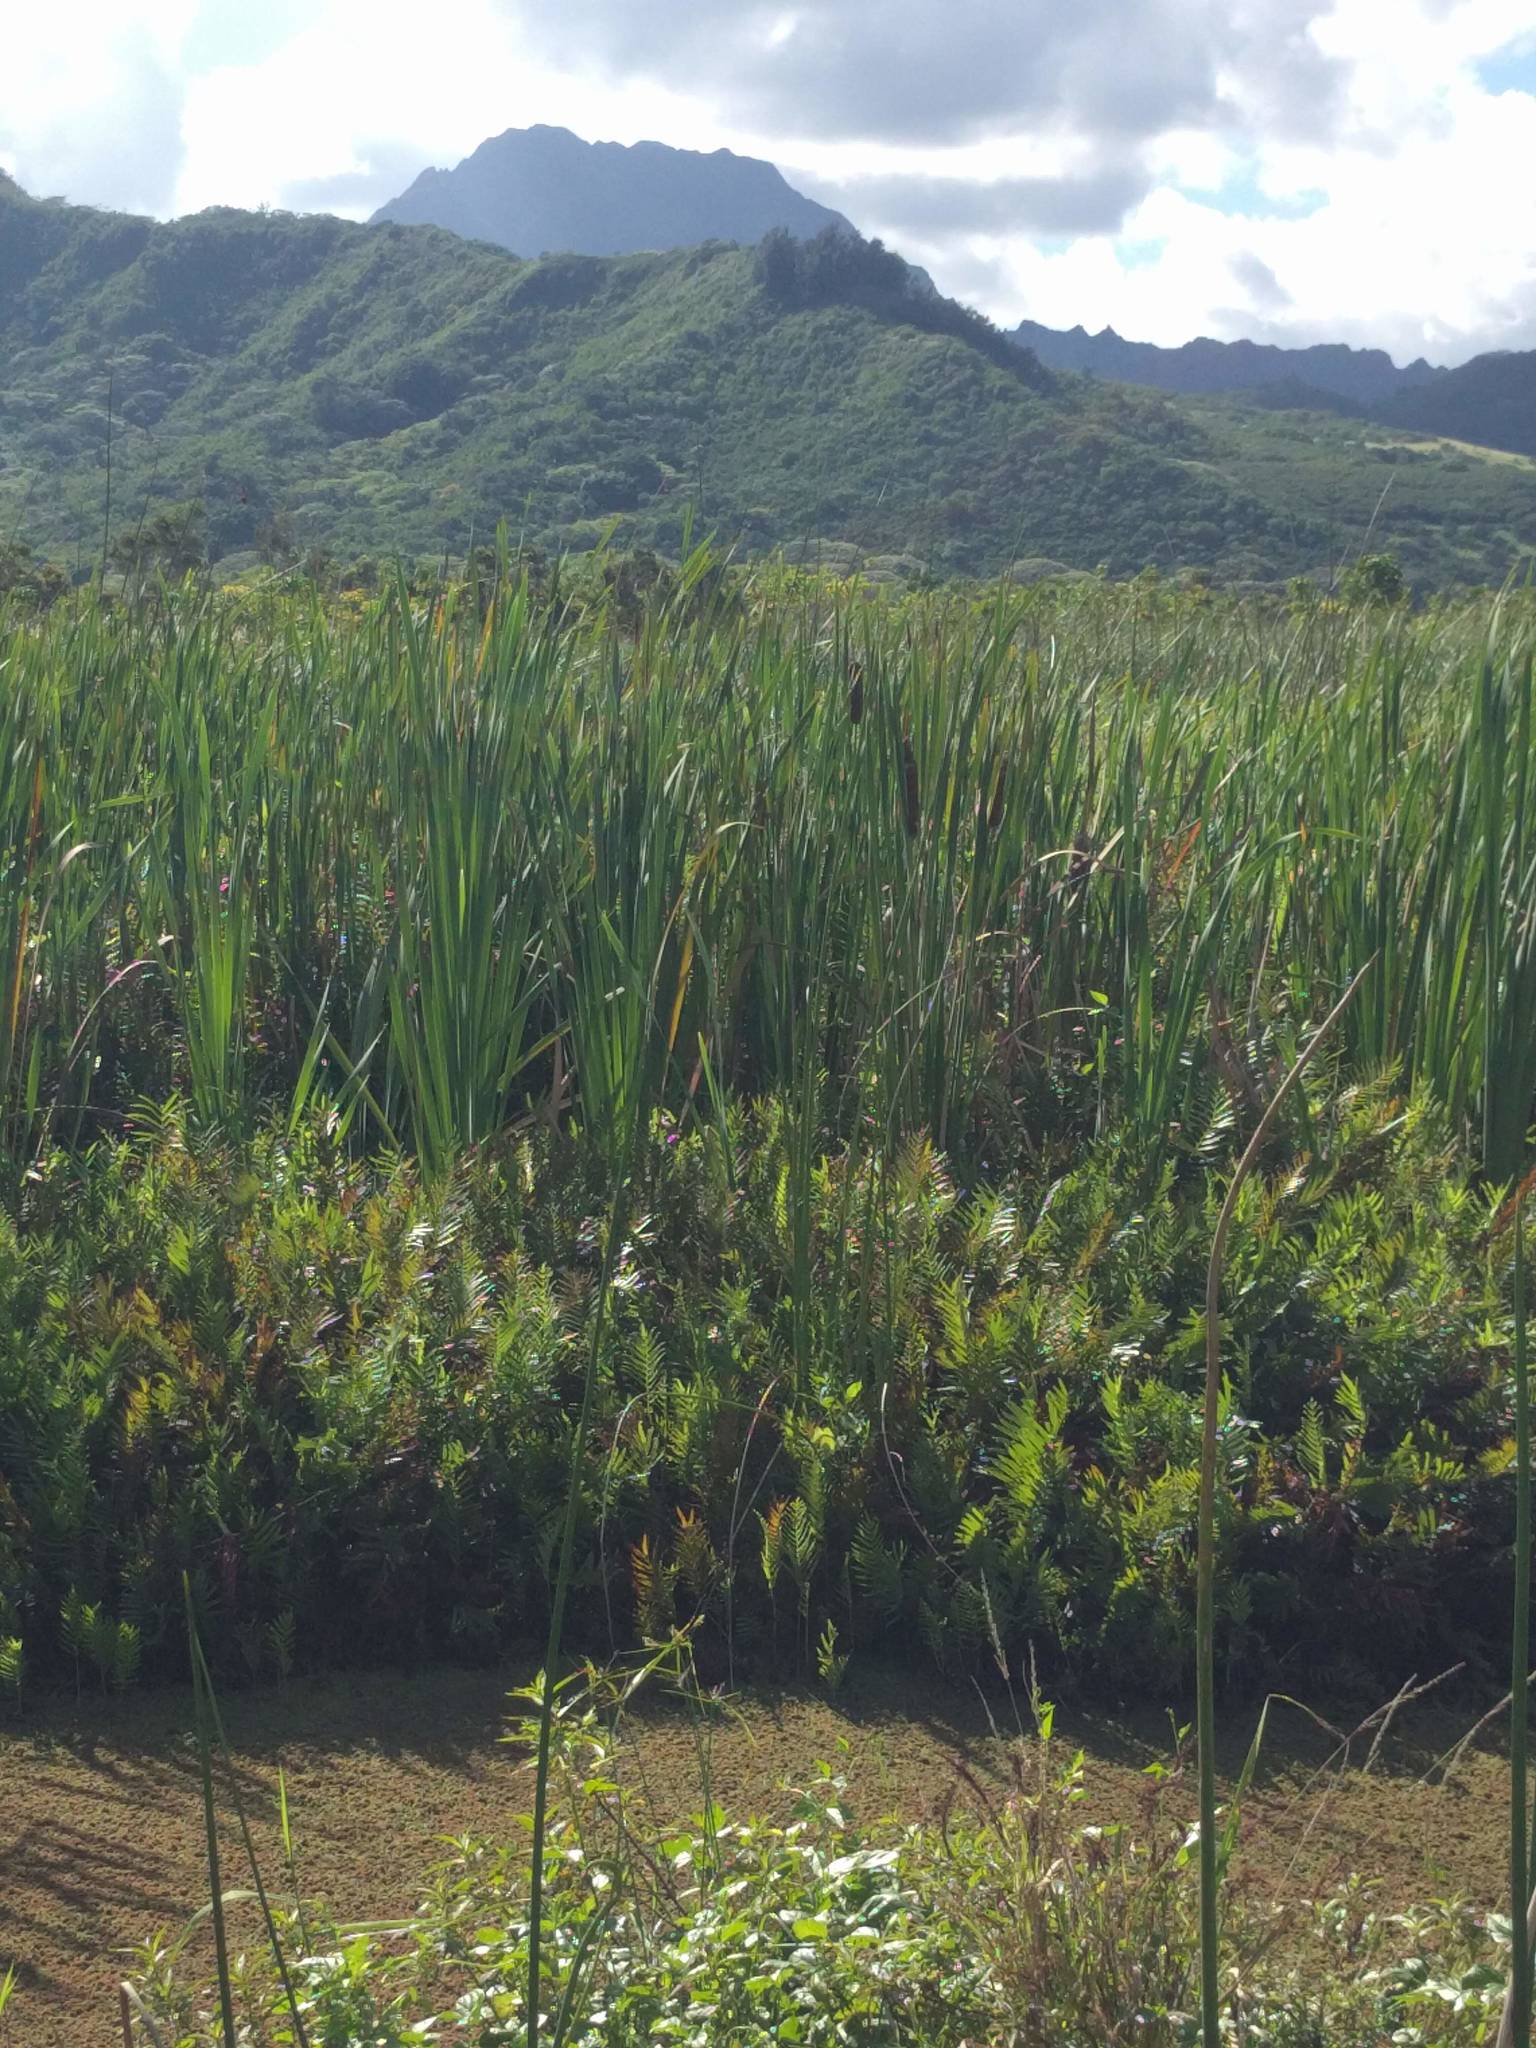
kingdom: Plantae
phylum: Tracheophyta
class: Liliopsida
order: Poales
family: Typhaceae
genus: Typha
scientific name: Typha latifolia
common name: Broadleaf cattail
